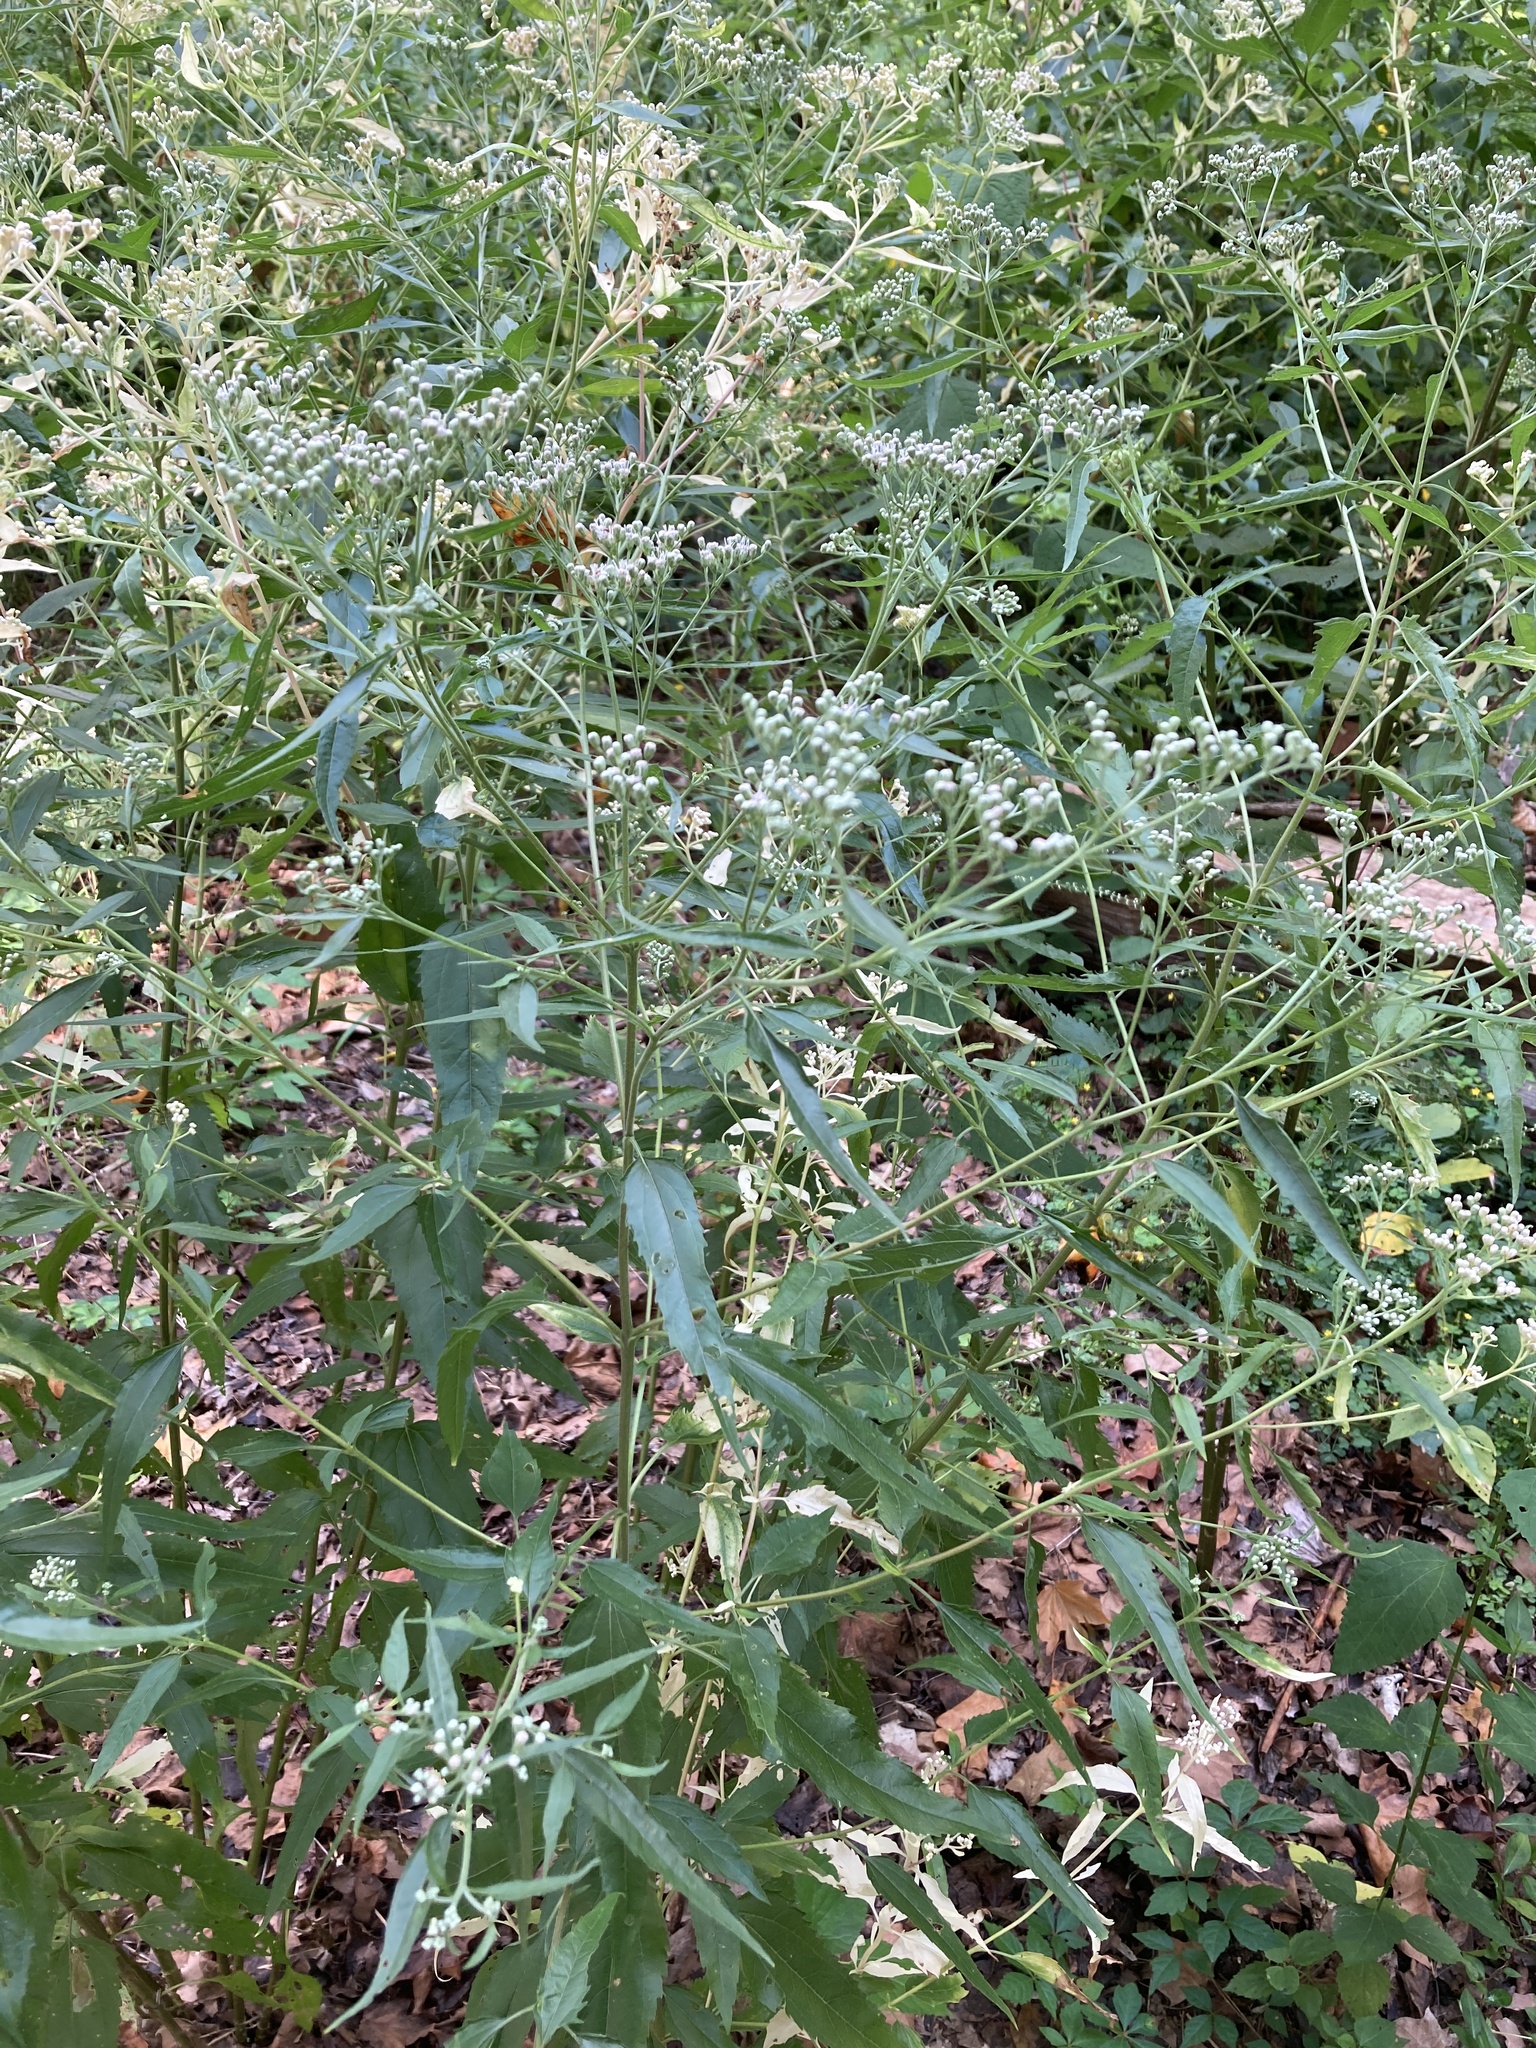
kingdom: Plantae
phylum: Tracheophyta
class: Magnoliopsida
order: Asterales
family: Asteraceae
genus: Eupatorium
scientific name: Eupatorium serotinum
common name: Late boneset
